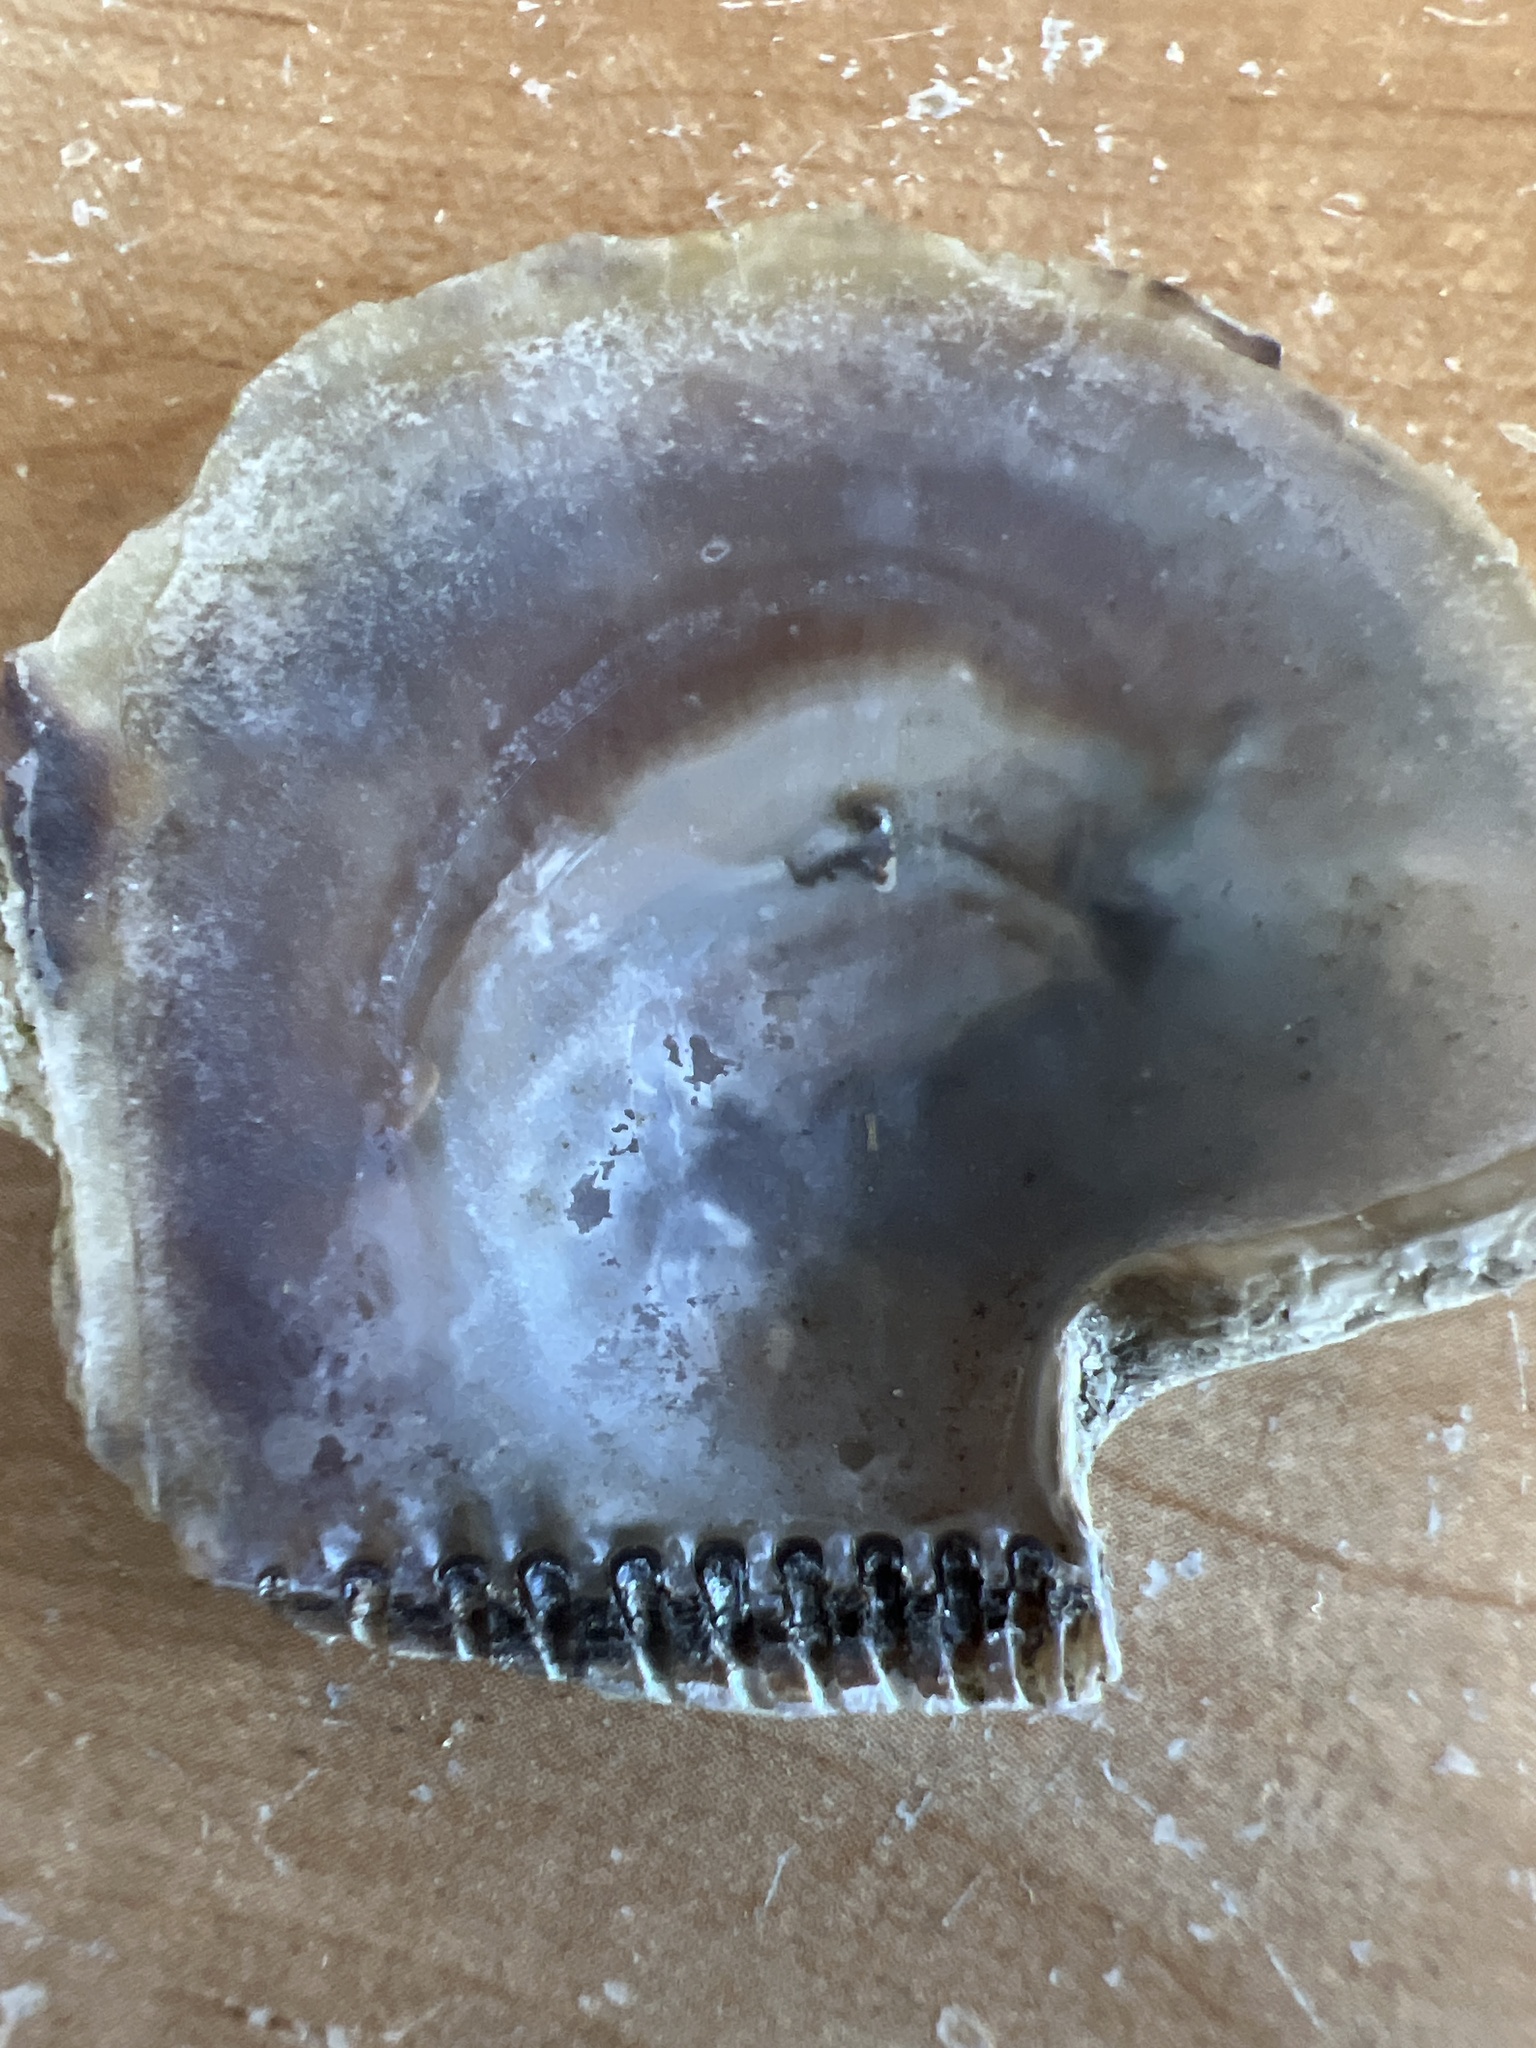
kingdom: Animalia
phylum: Mollusca
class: Bivalvia
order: Ostreida
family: Isognomonidae
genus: Isognomon
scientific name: Isognomon alatus
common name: Flat tree-oyster
